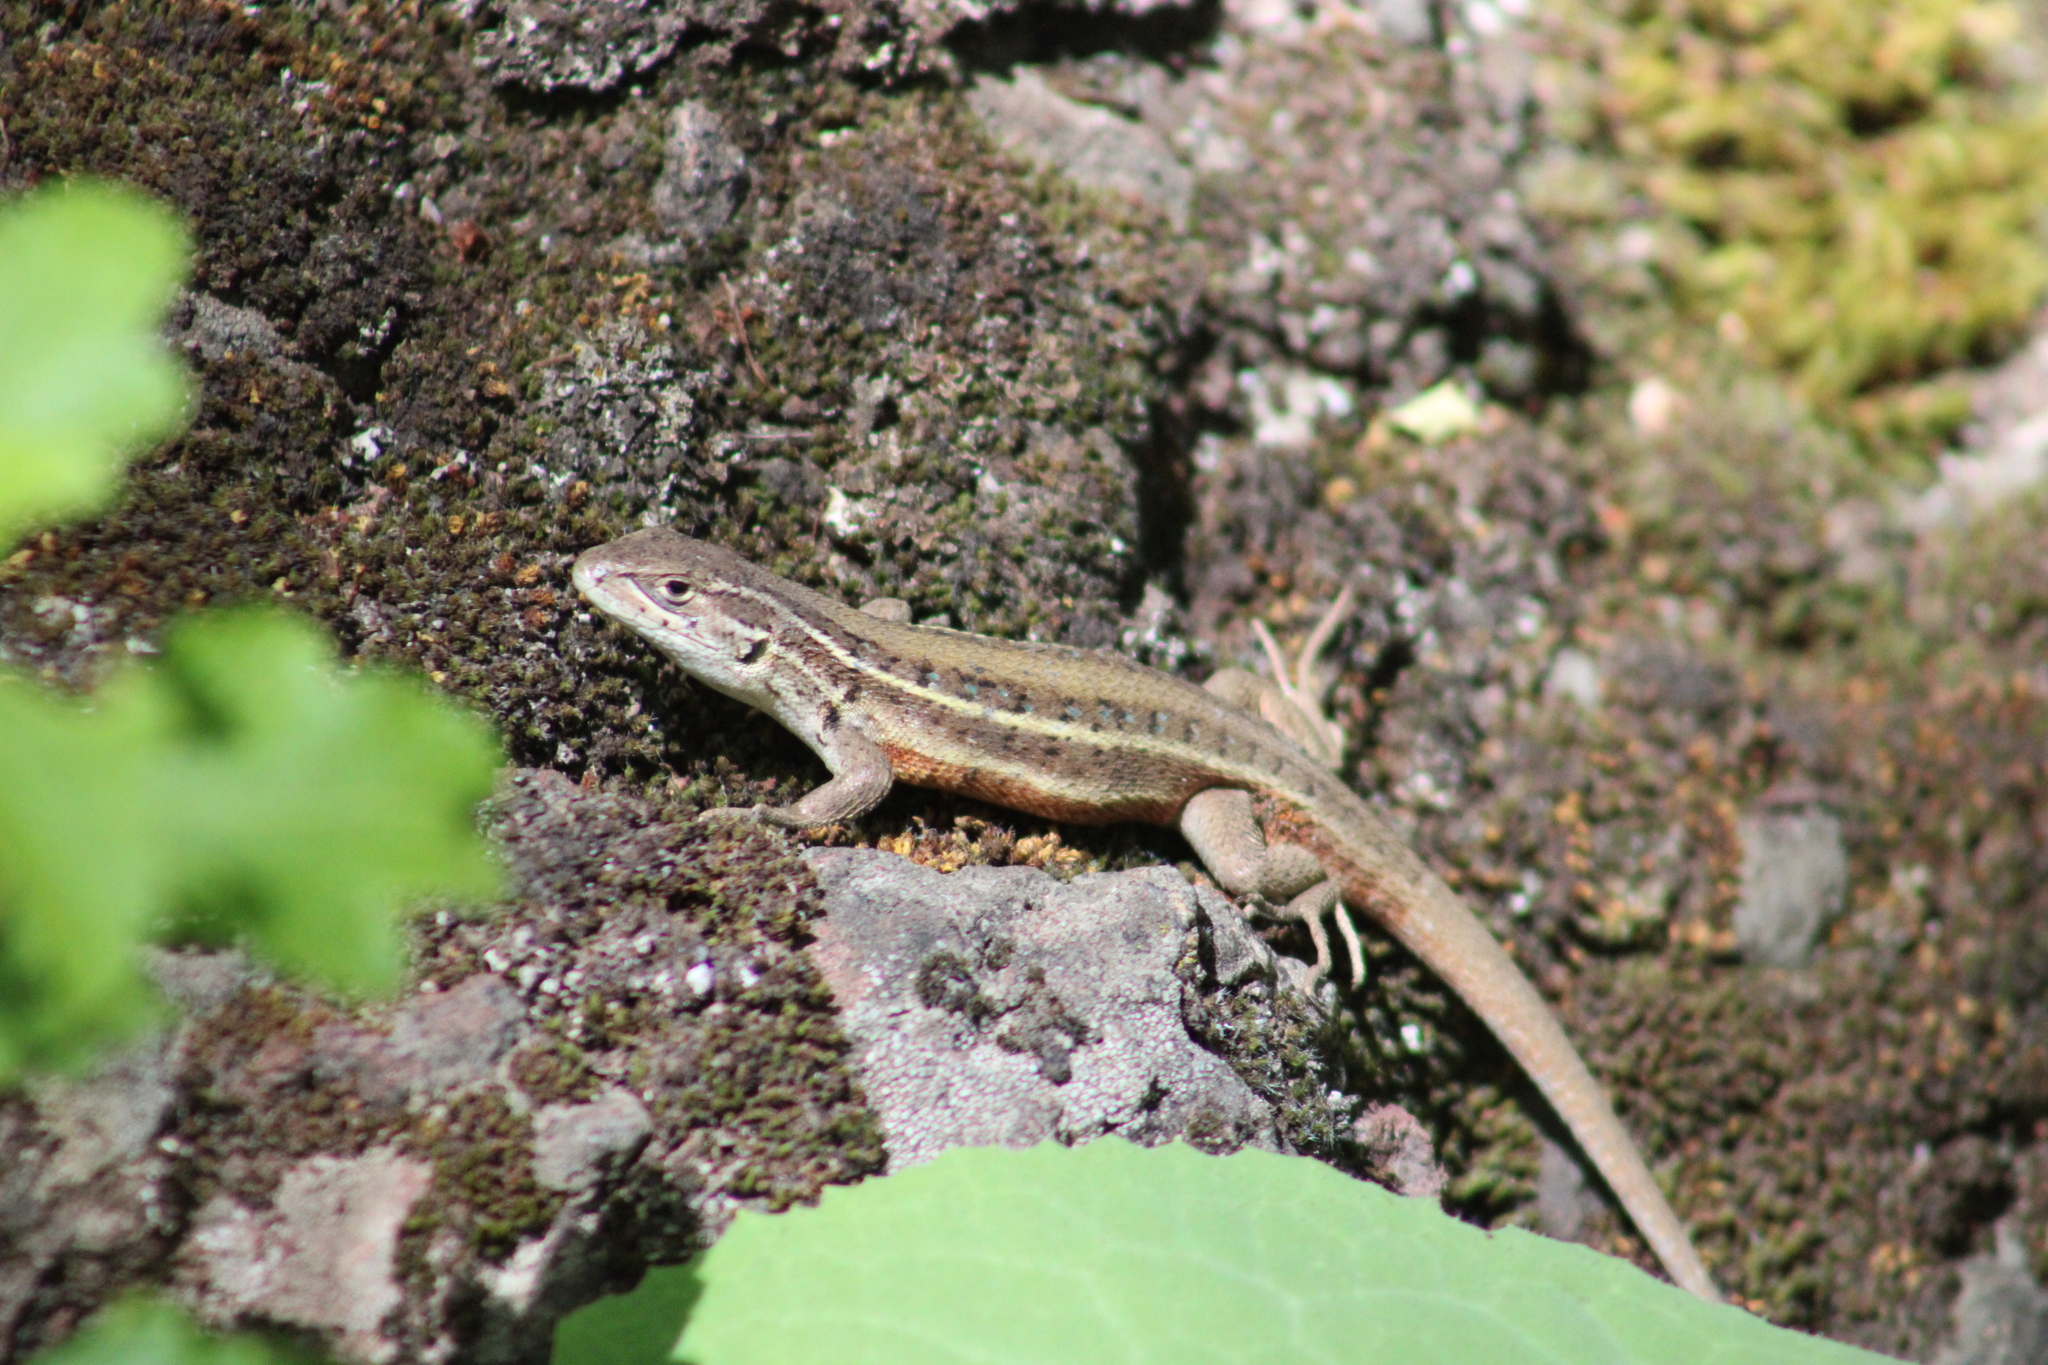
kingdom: Animalia
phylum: Chordata
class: Squamata
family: Liolaemidae
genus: Liolaemus
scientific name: Liolaemus lemniscatus
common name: Wreath tree iguana
